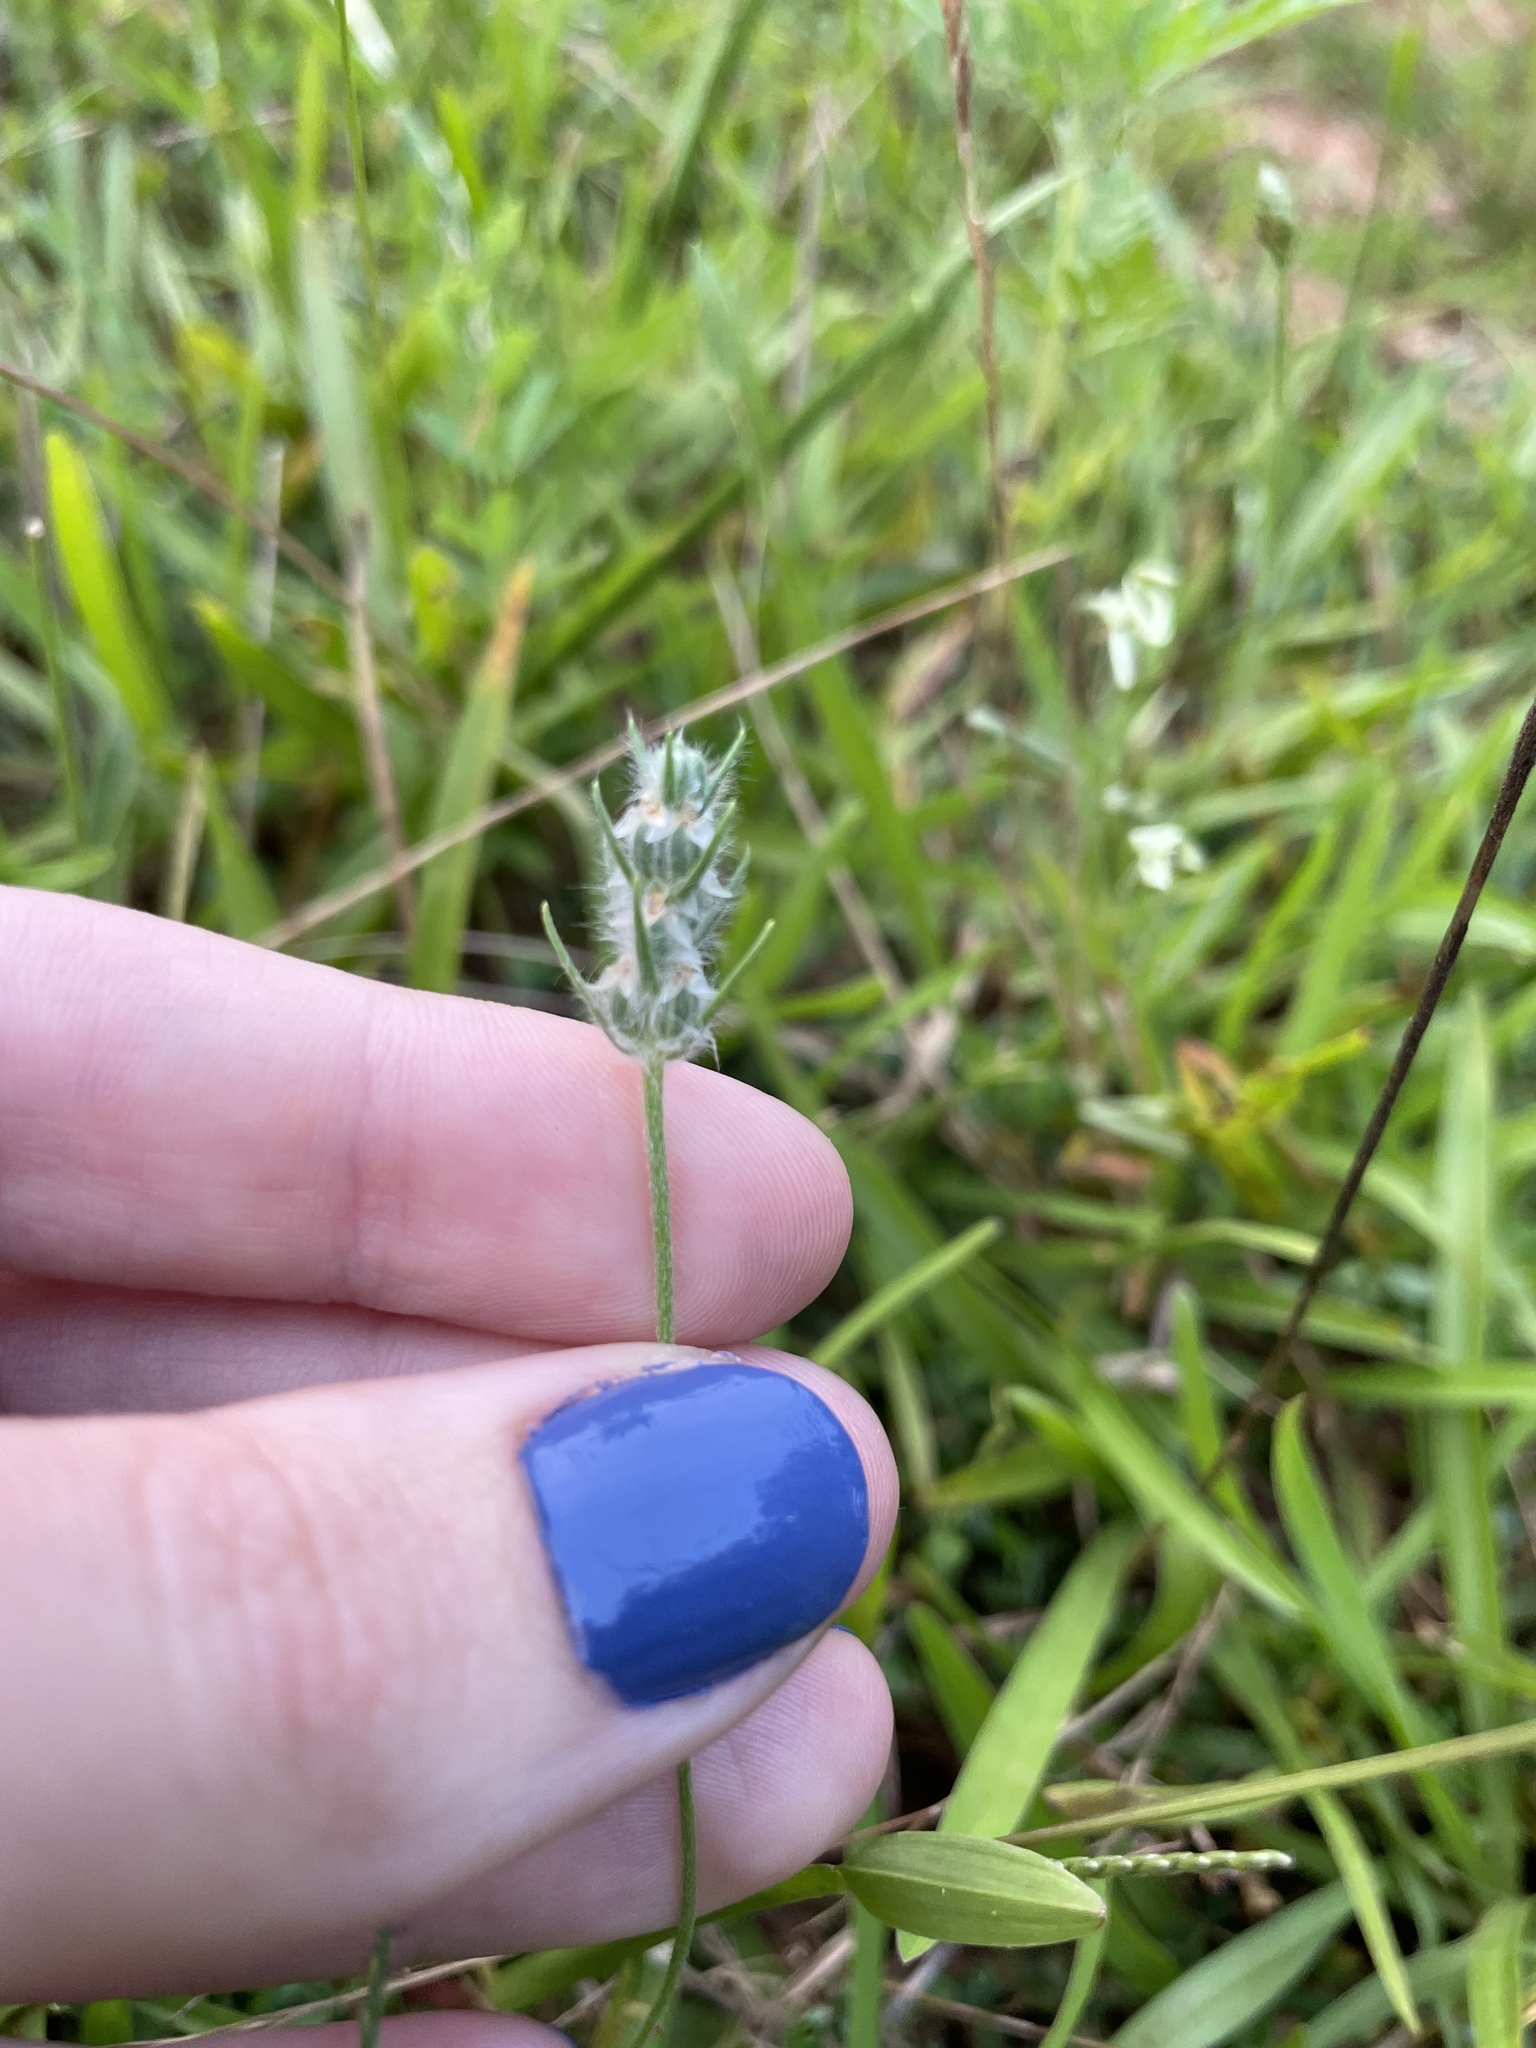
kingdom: Plantae
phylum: Tracheophyta
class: Magnoliopsida
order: Lamiales
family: Plantaginaceae
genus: Plantago
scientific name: Plantago aristata
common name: Bracted plantain
